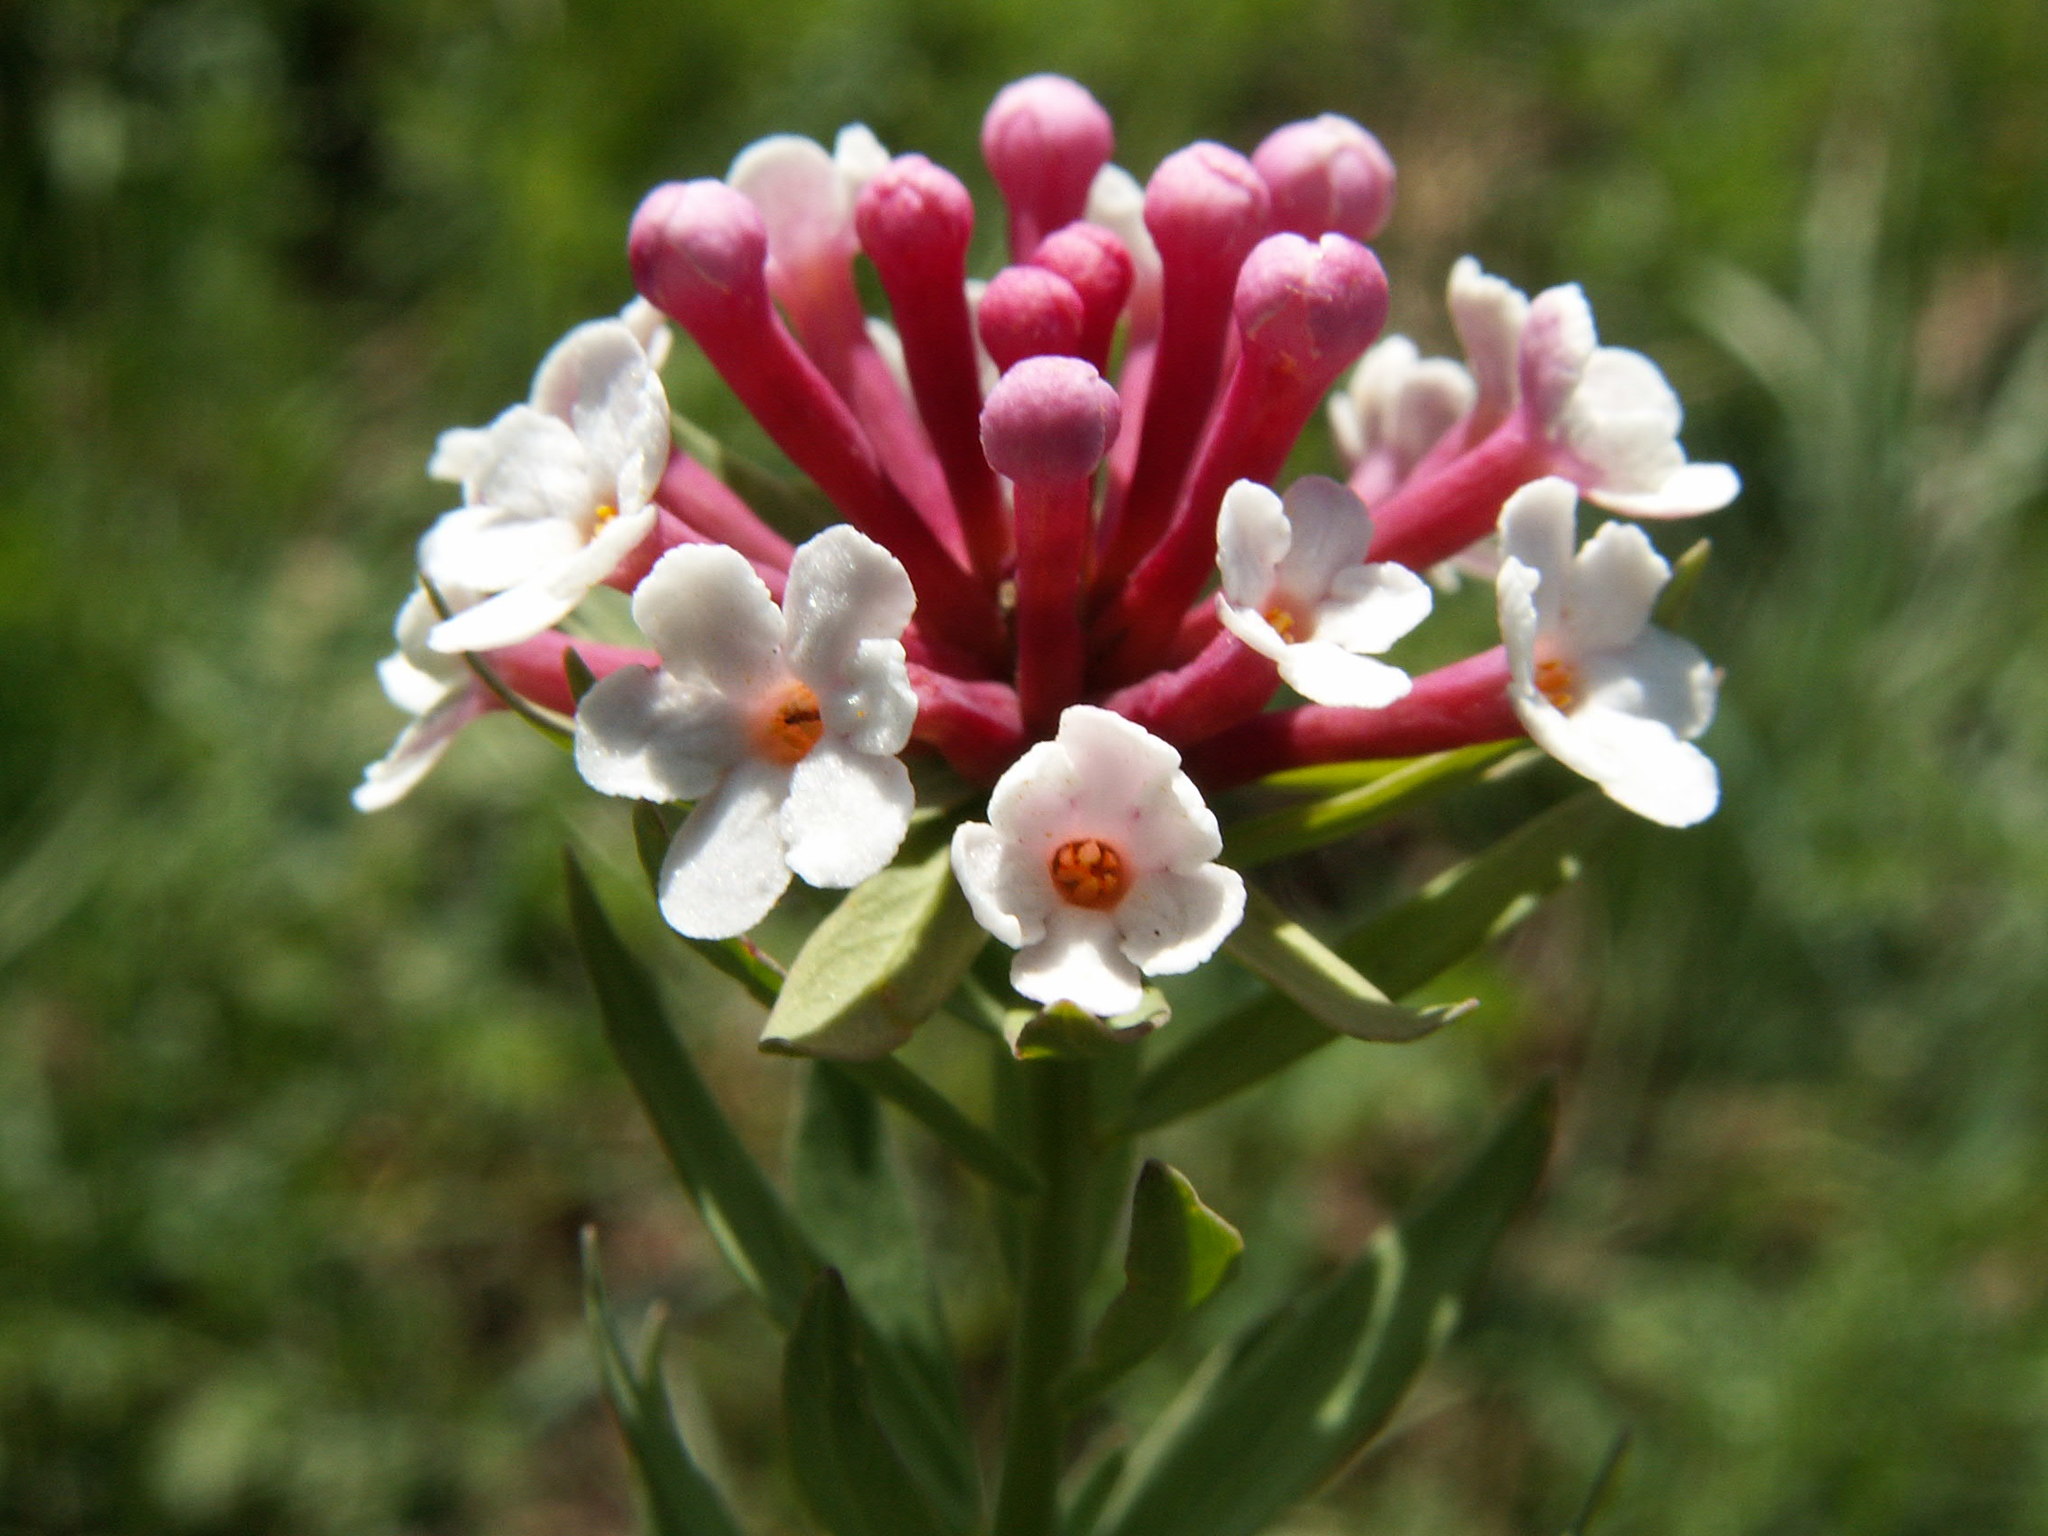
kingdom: Plantae
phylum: Tracheophyta
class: Magnoliopsida
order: Malvales
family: Thymelaeaceae
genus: Stellera
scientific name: Stellera chamaejasme
